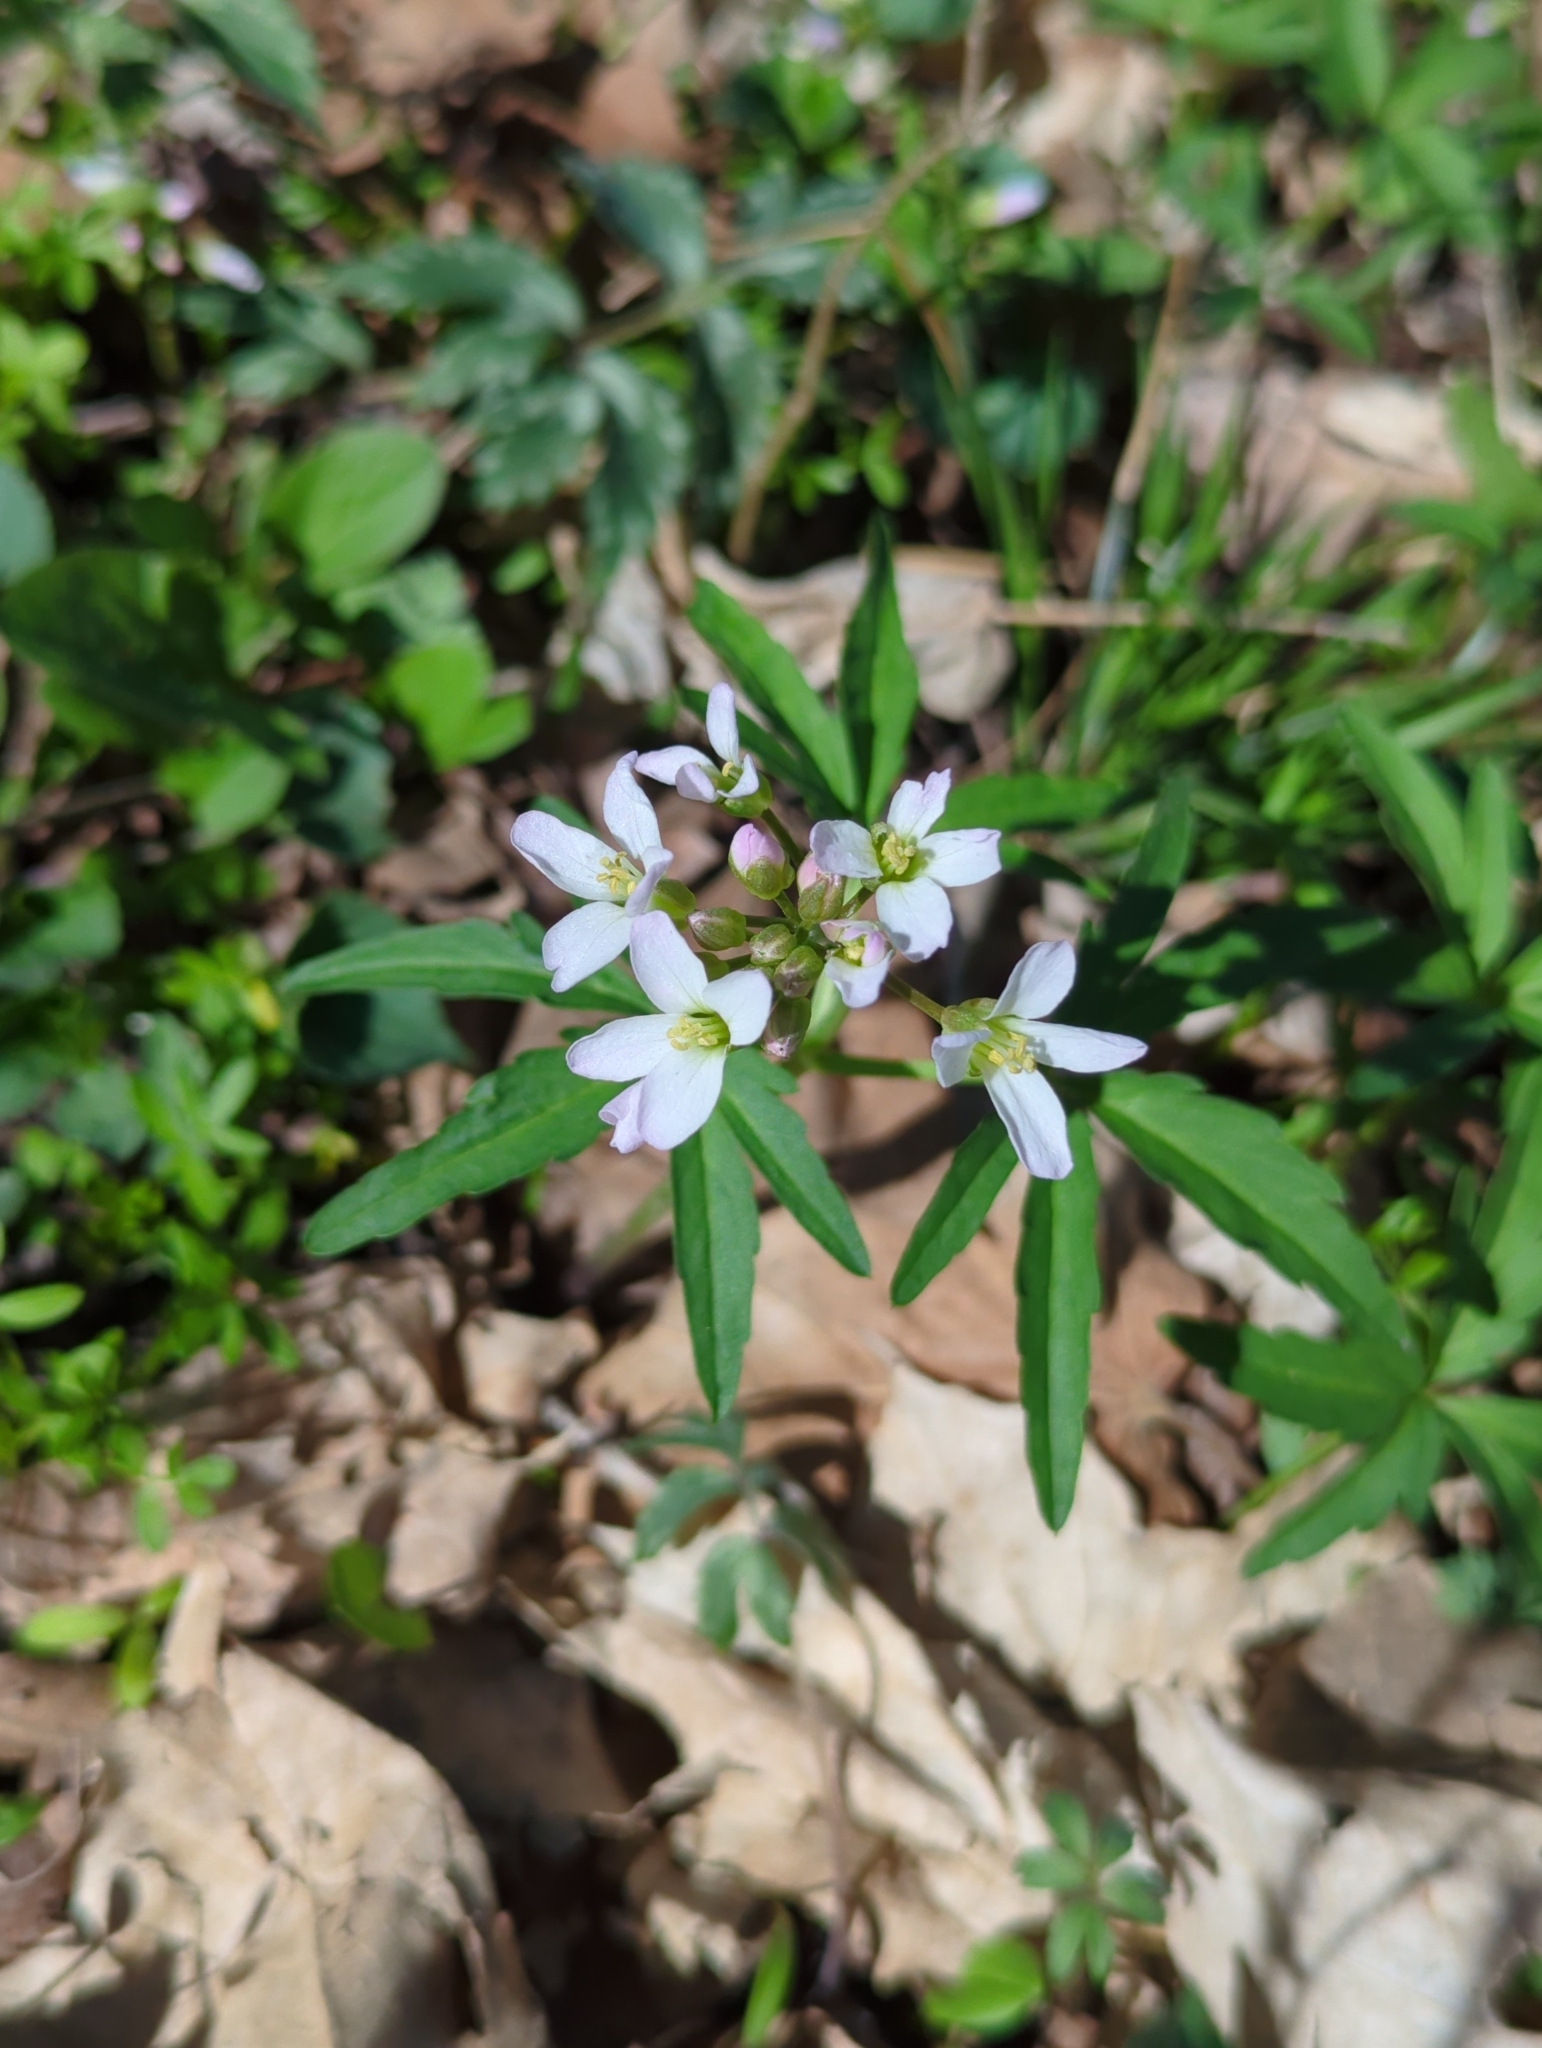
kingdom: Plantae
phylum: Tracheophyta
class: Magnoliopsida
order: Brassicales
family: Brassicaceae
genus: Cardamine
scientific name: Cardamine concatenata
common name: Cut-leaf toothcup
